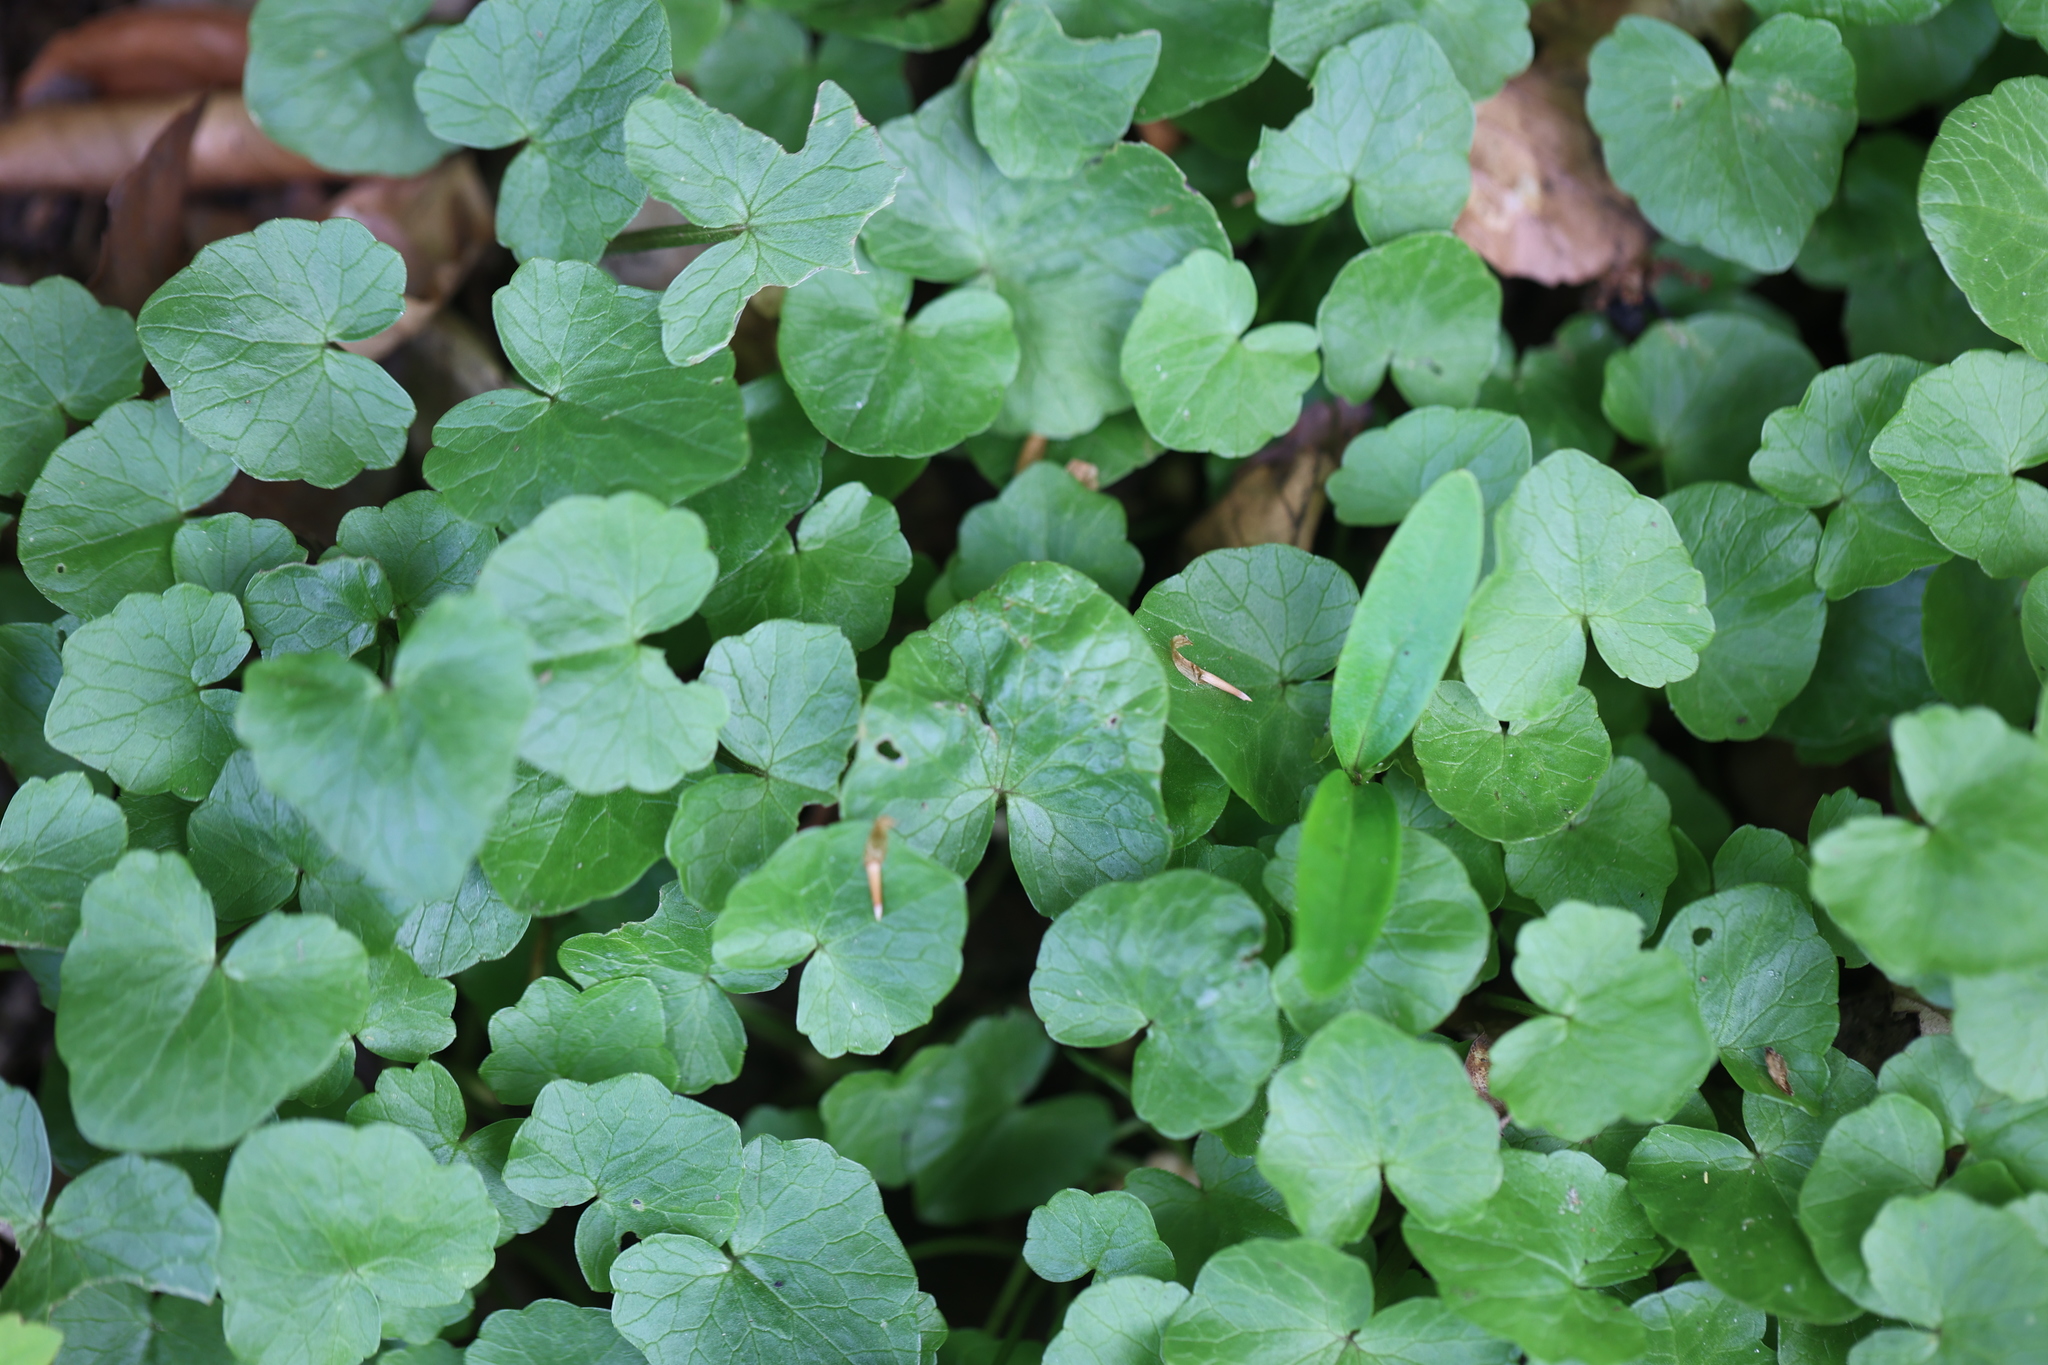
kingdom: Plantae
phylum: Tracheophyta
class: Magnoliopsida
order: Ranunculales
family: Ranunculaceae
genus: Ficaria
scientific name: Ficaria verna
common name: Lesser celandine
